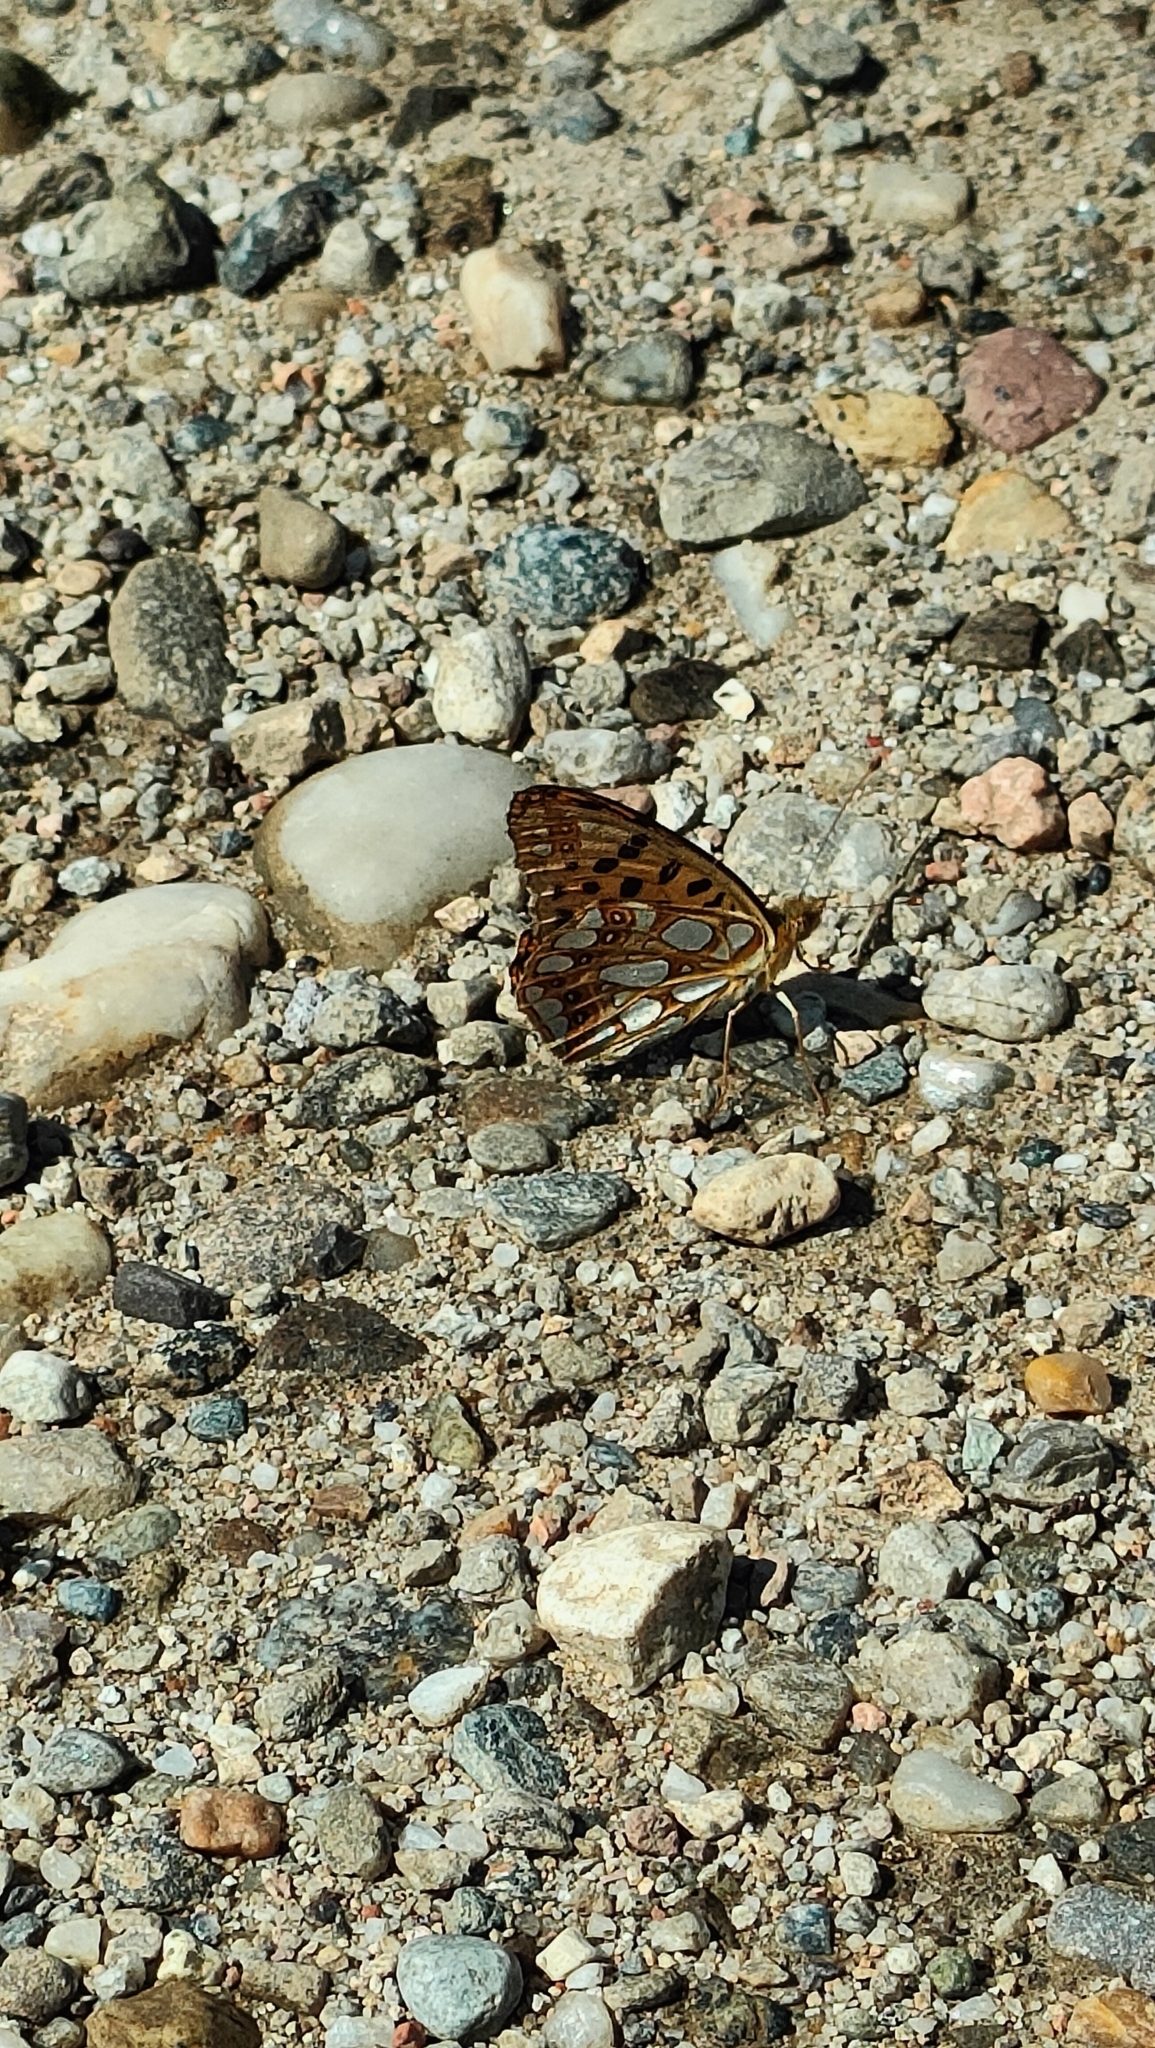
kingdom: Animalia
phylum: Arthropoda
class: Insecta
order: Lepidoptera
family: Nymphalidae
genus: Issoria
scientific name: Issoria lathonia
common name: Queen of spain fritillary
